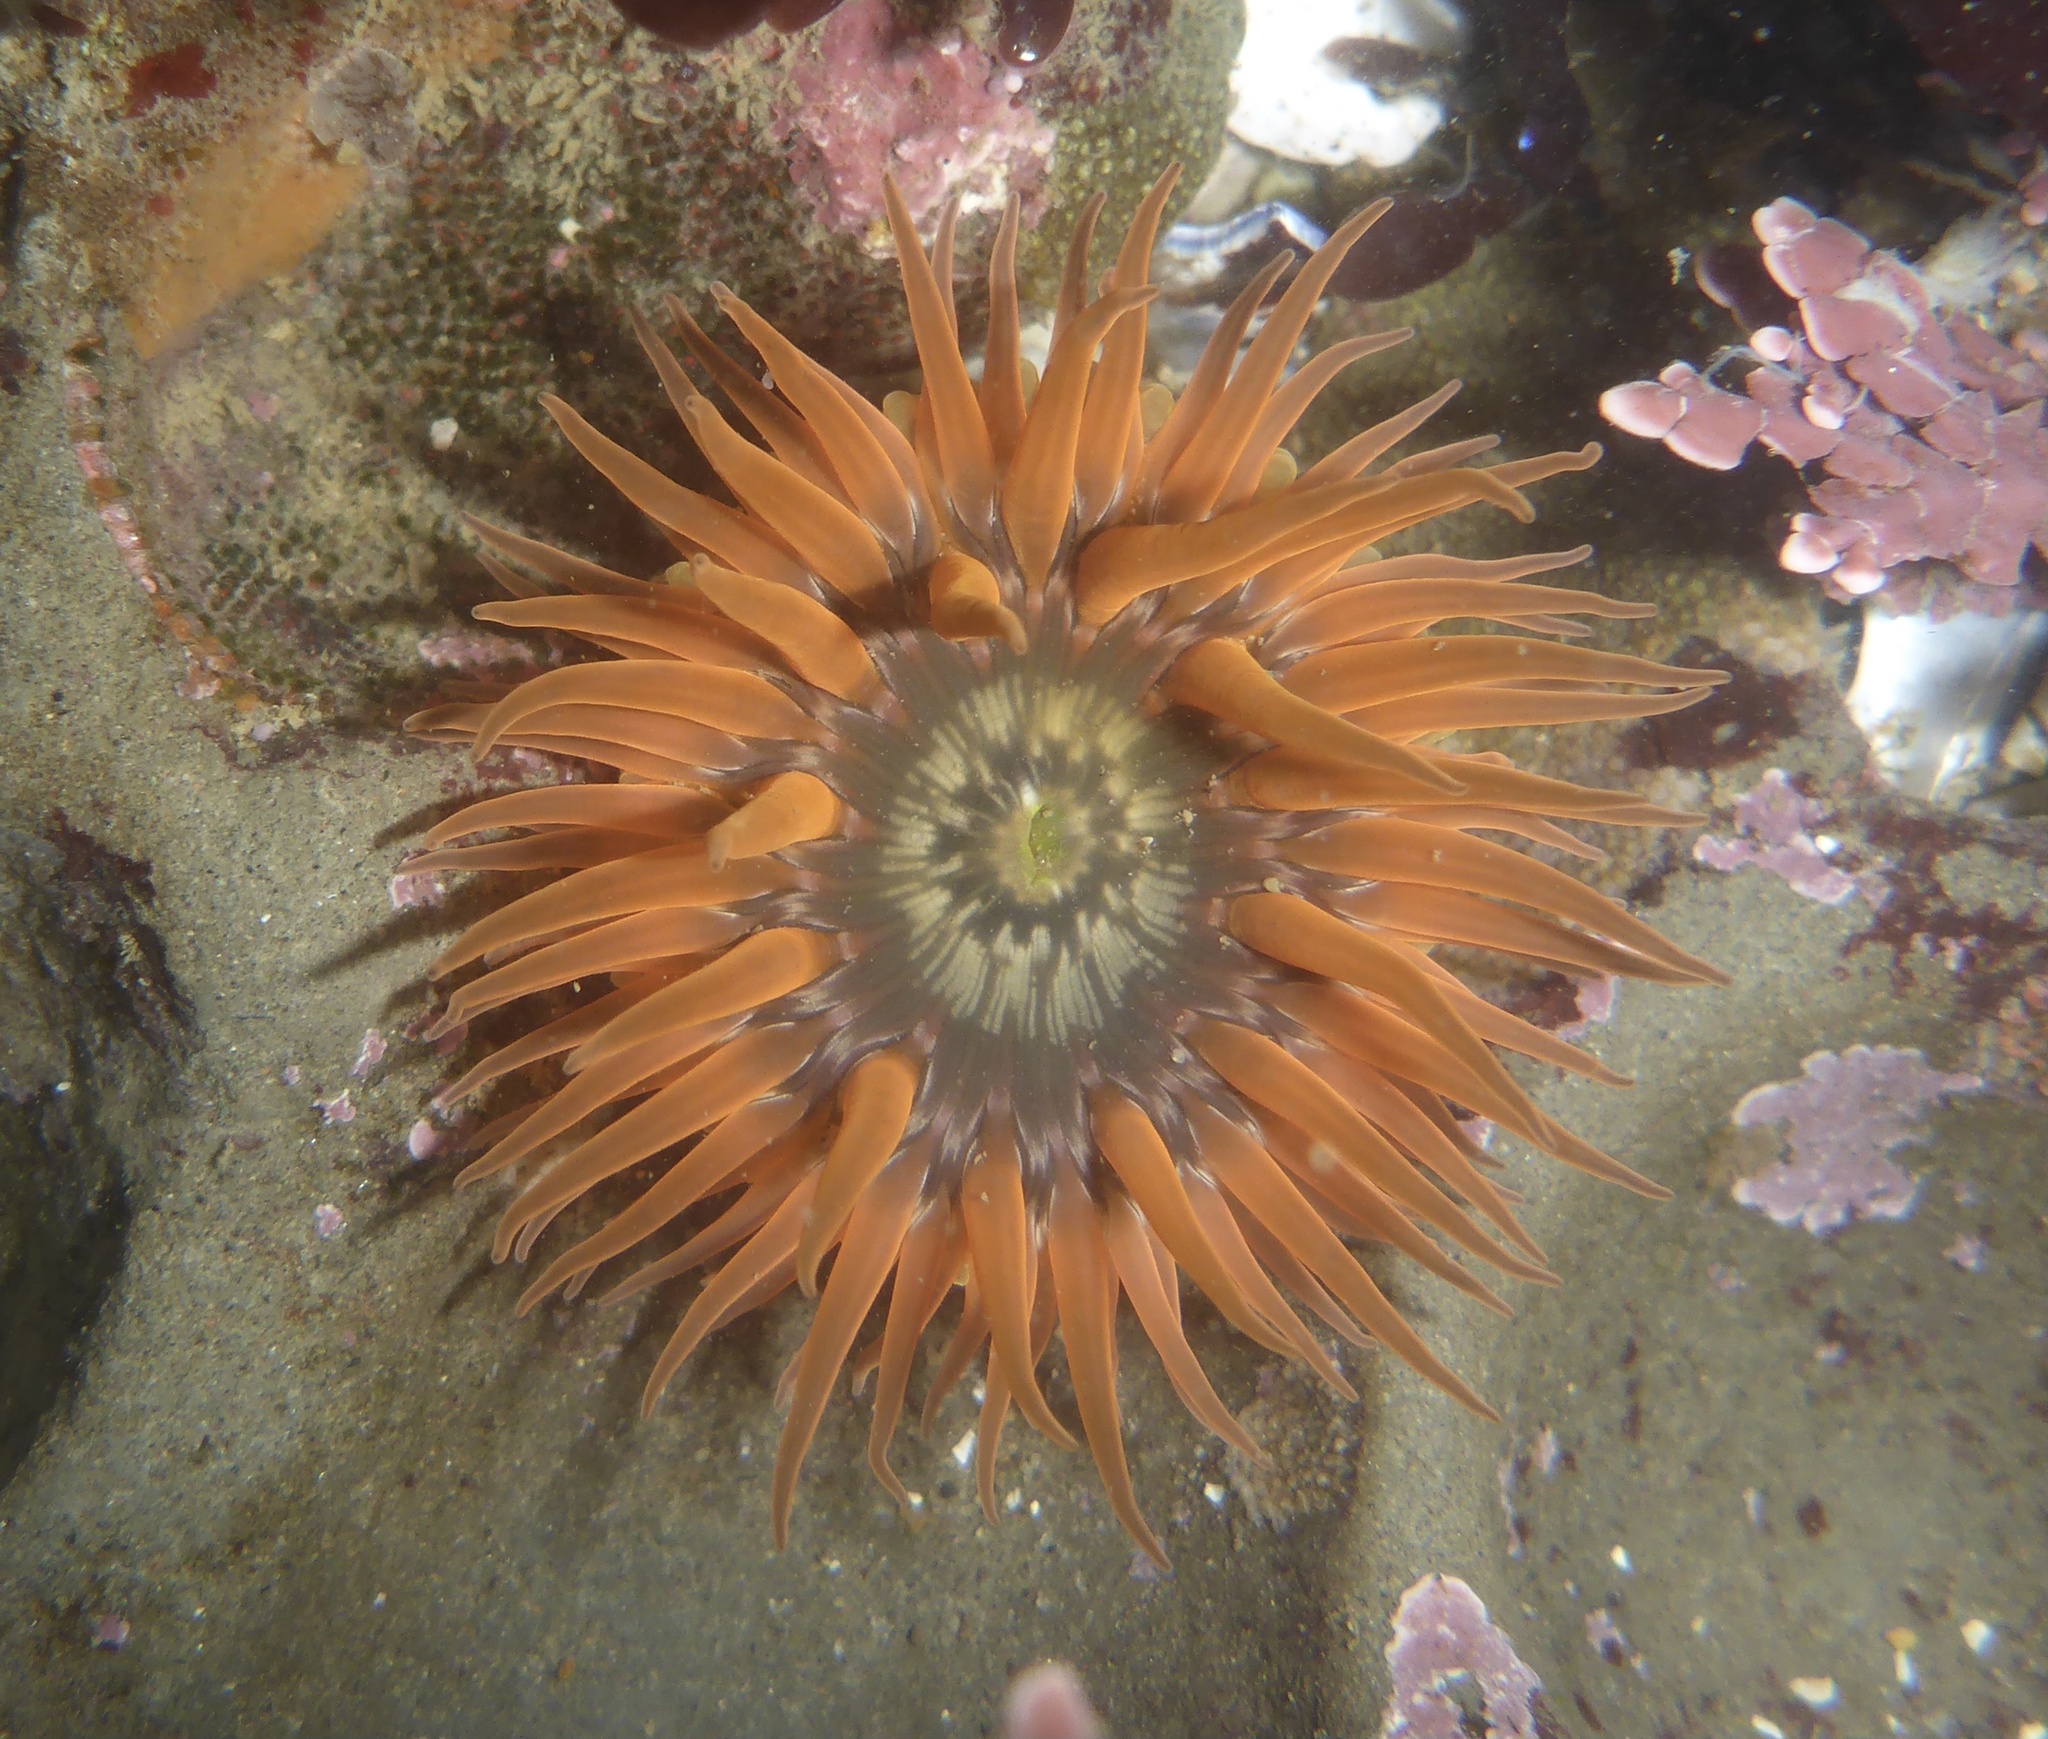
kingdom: Animalia
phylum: Cnidaria
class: Anthozoa
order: Actiniaria
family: Actiniidae
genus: Anthopleura
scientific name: Anthopleura artemisia
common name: Buried sea anemone
